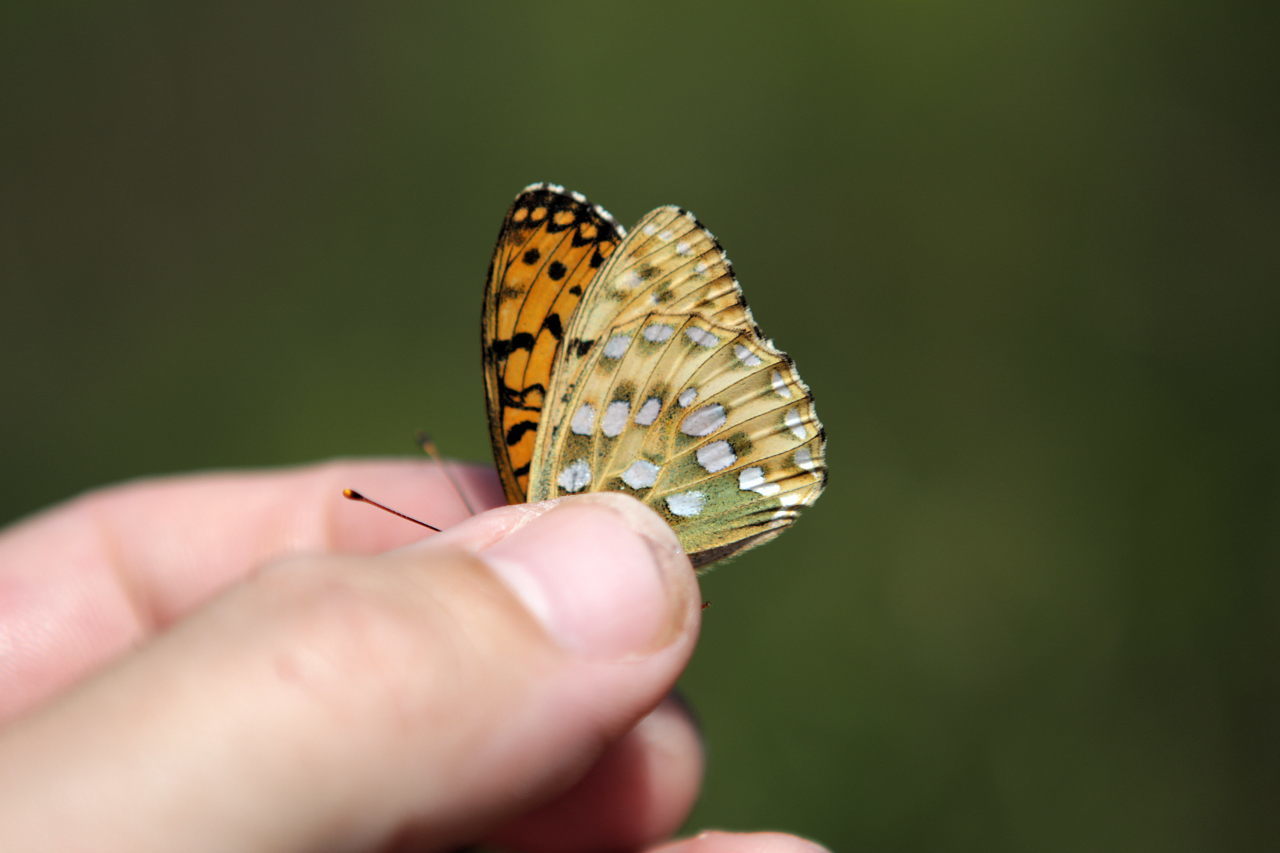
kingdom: Animalia
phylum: Arthropoda
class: Insecta
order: Lepidoptera
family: Nymphalidae
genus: Speyeria
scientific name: Speyeria aglaja
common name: Dark green fritillary
